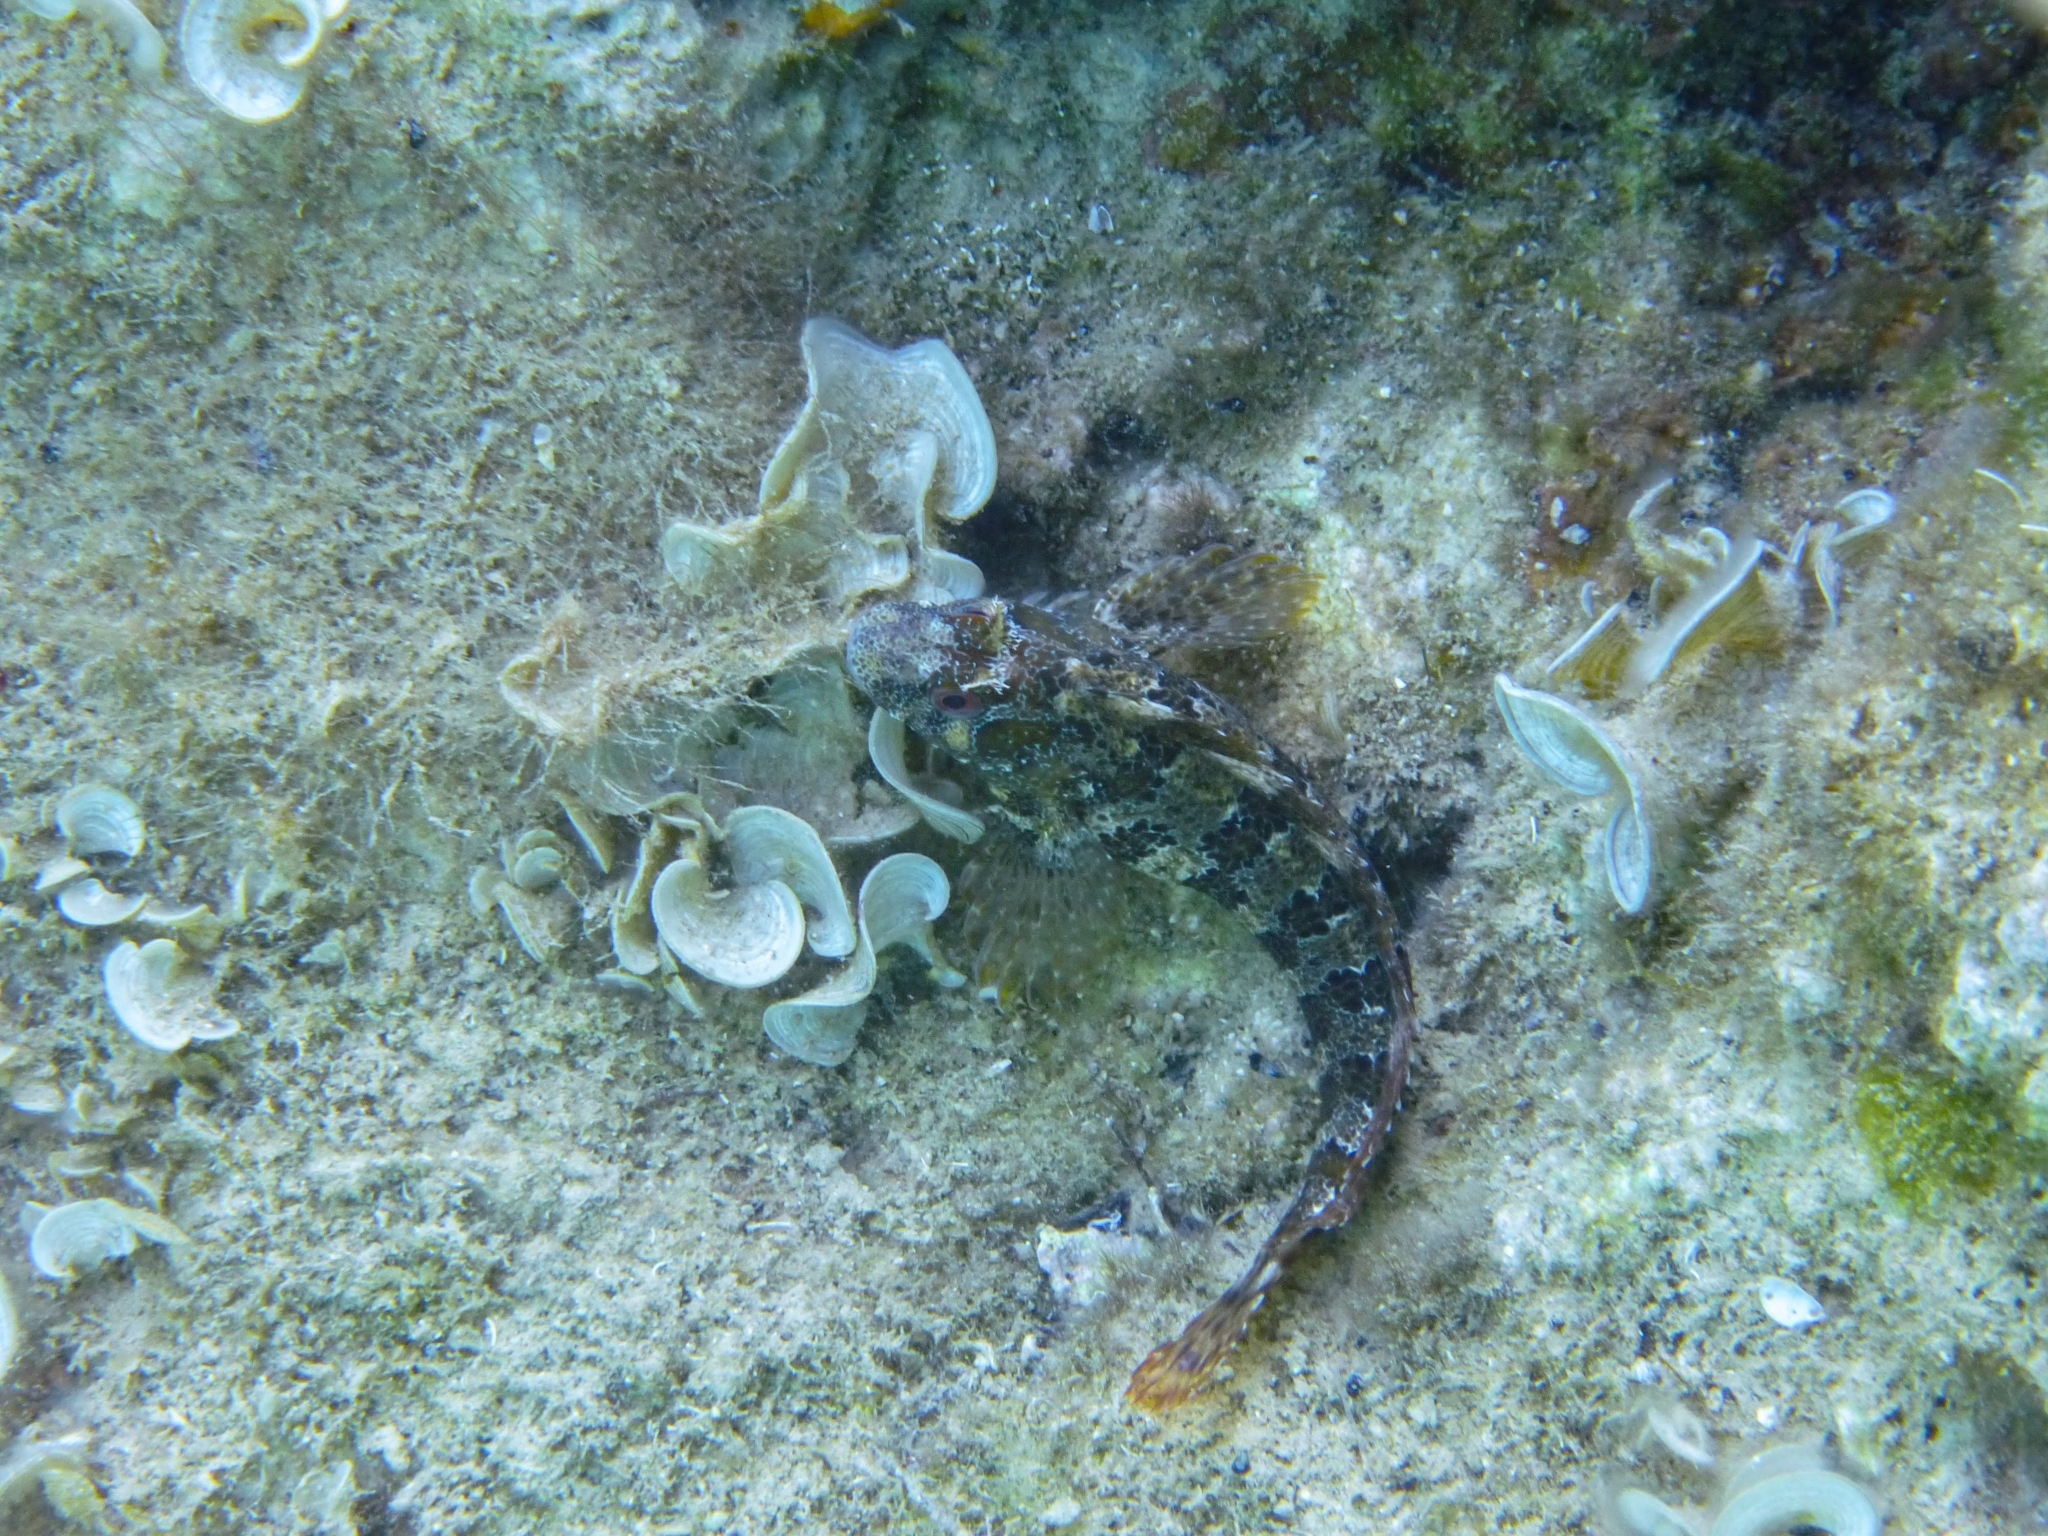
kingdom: Animalia
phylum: Chordata
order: Perciformes
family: Blenniidae
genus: Parablennius
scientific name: Parablennius gattorugine
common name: Tompot blenny
